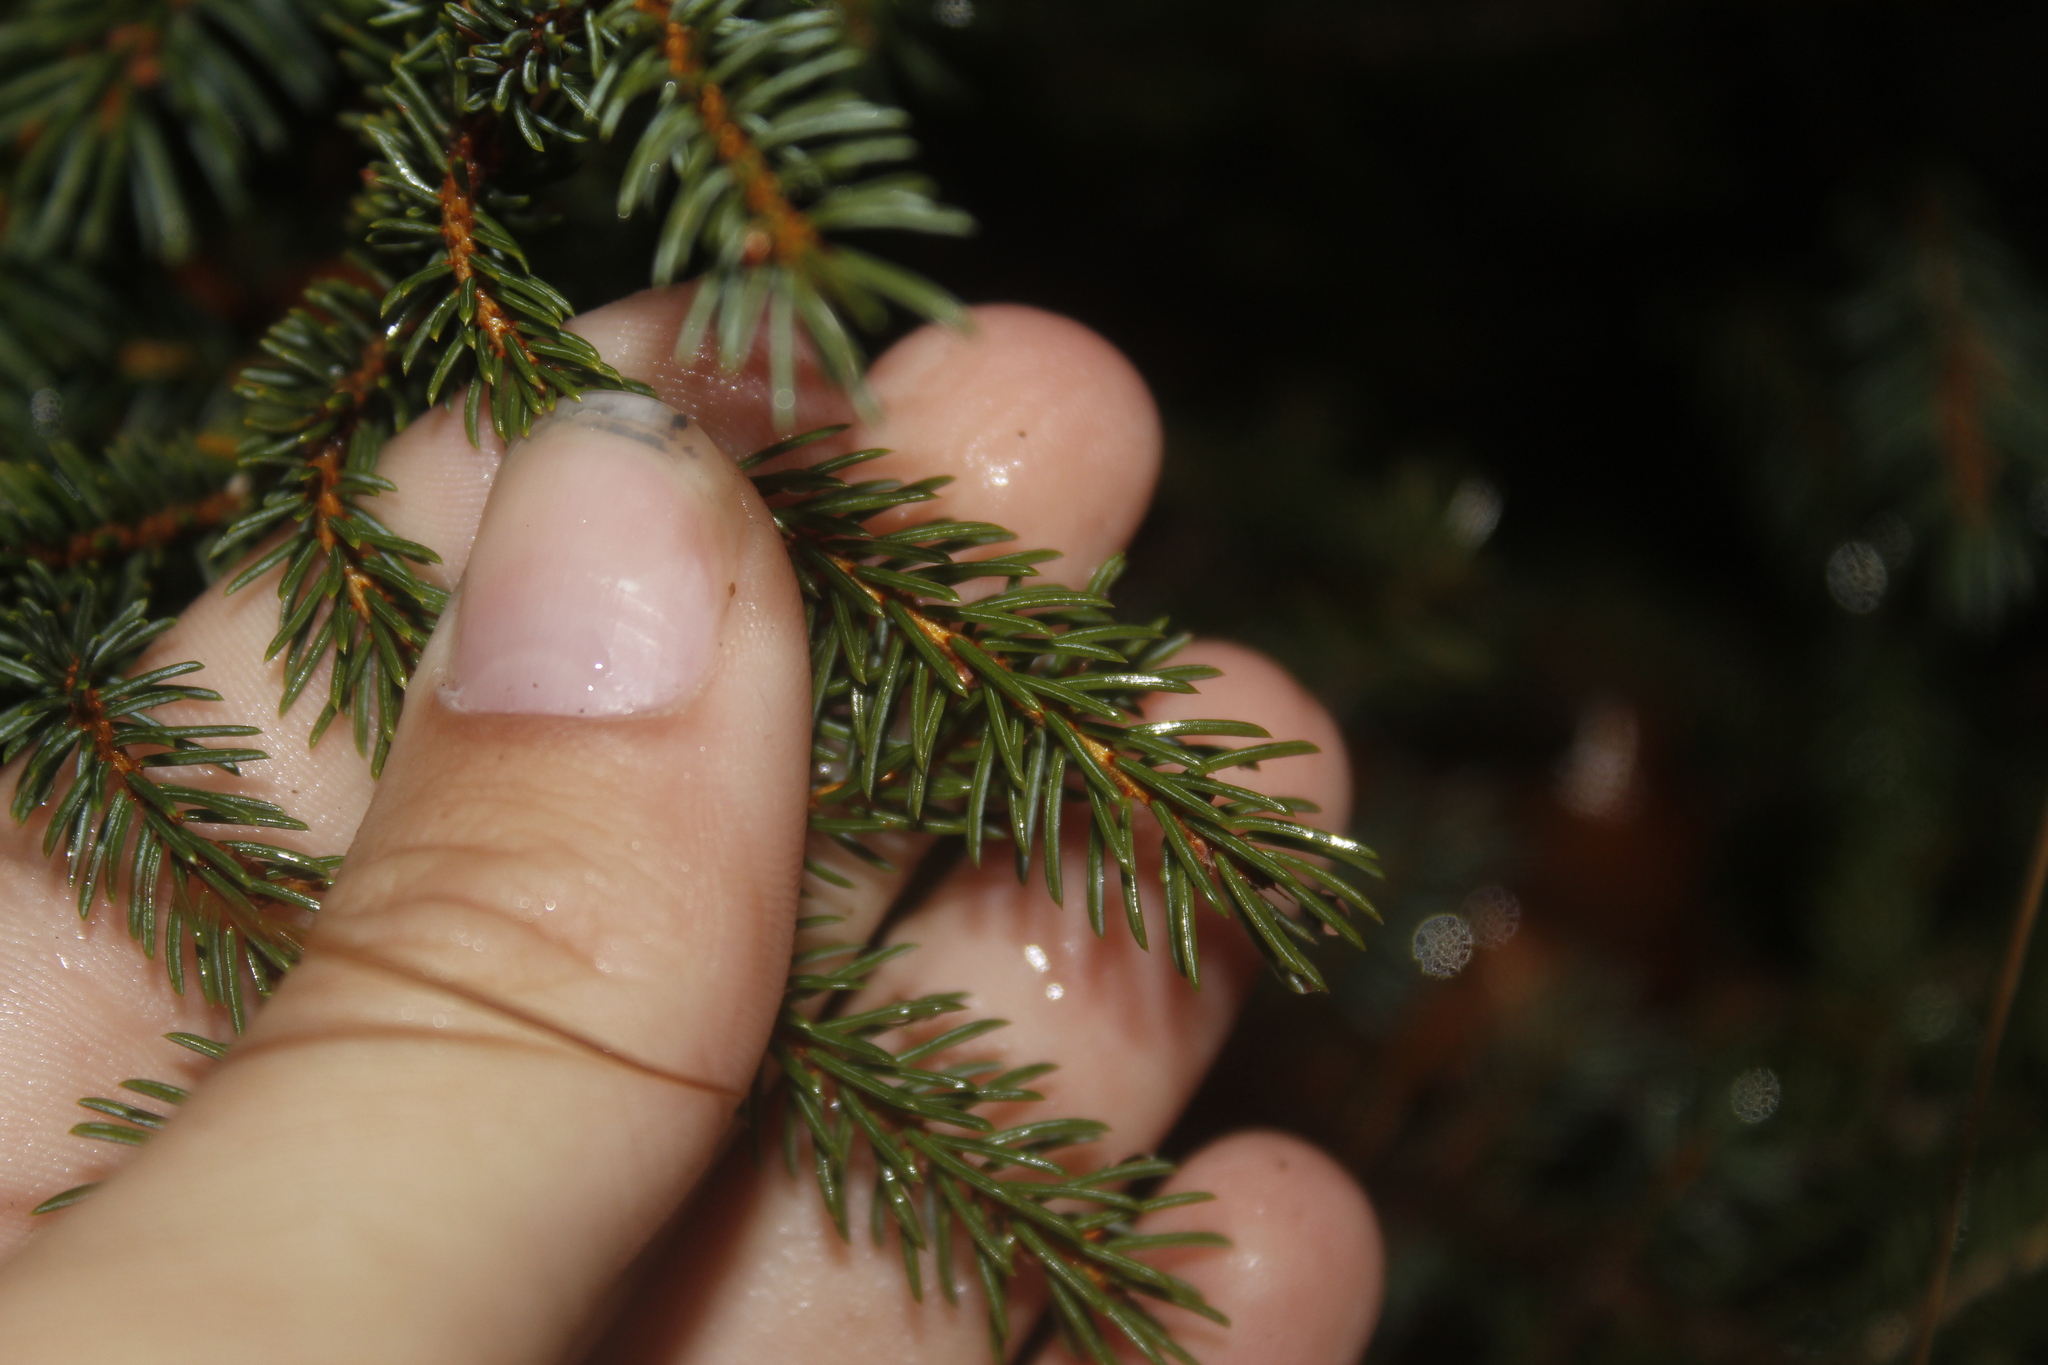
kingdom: Plantae
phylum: Tracheophyta
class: Pinopsida
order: Pinales
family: Pinaceae
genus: Picea
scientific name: Picea mariana
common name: Black spruce
